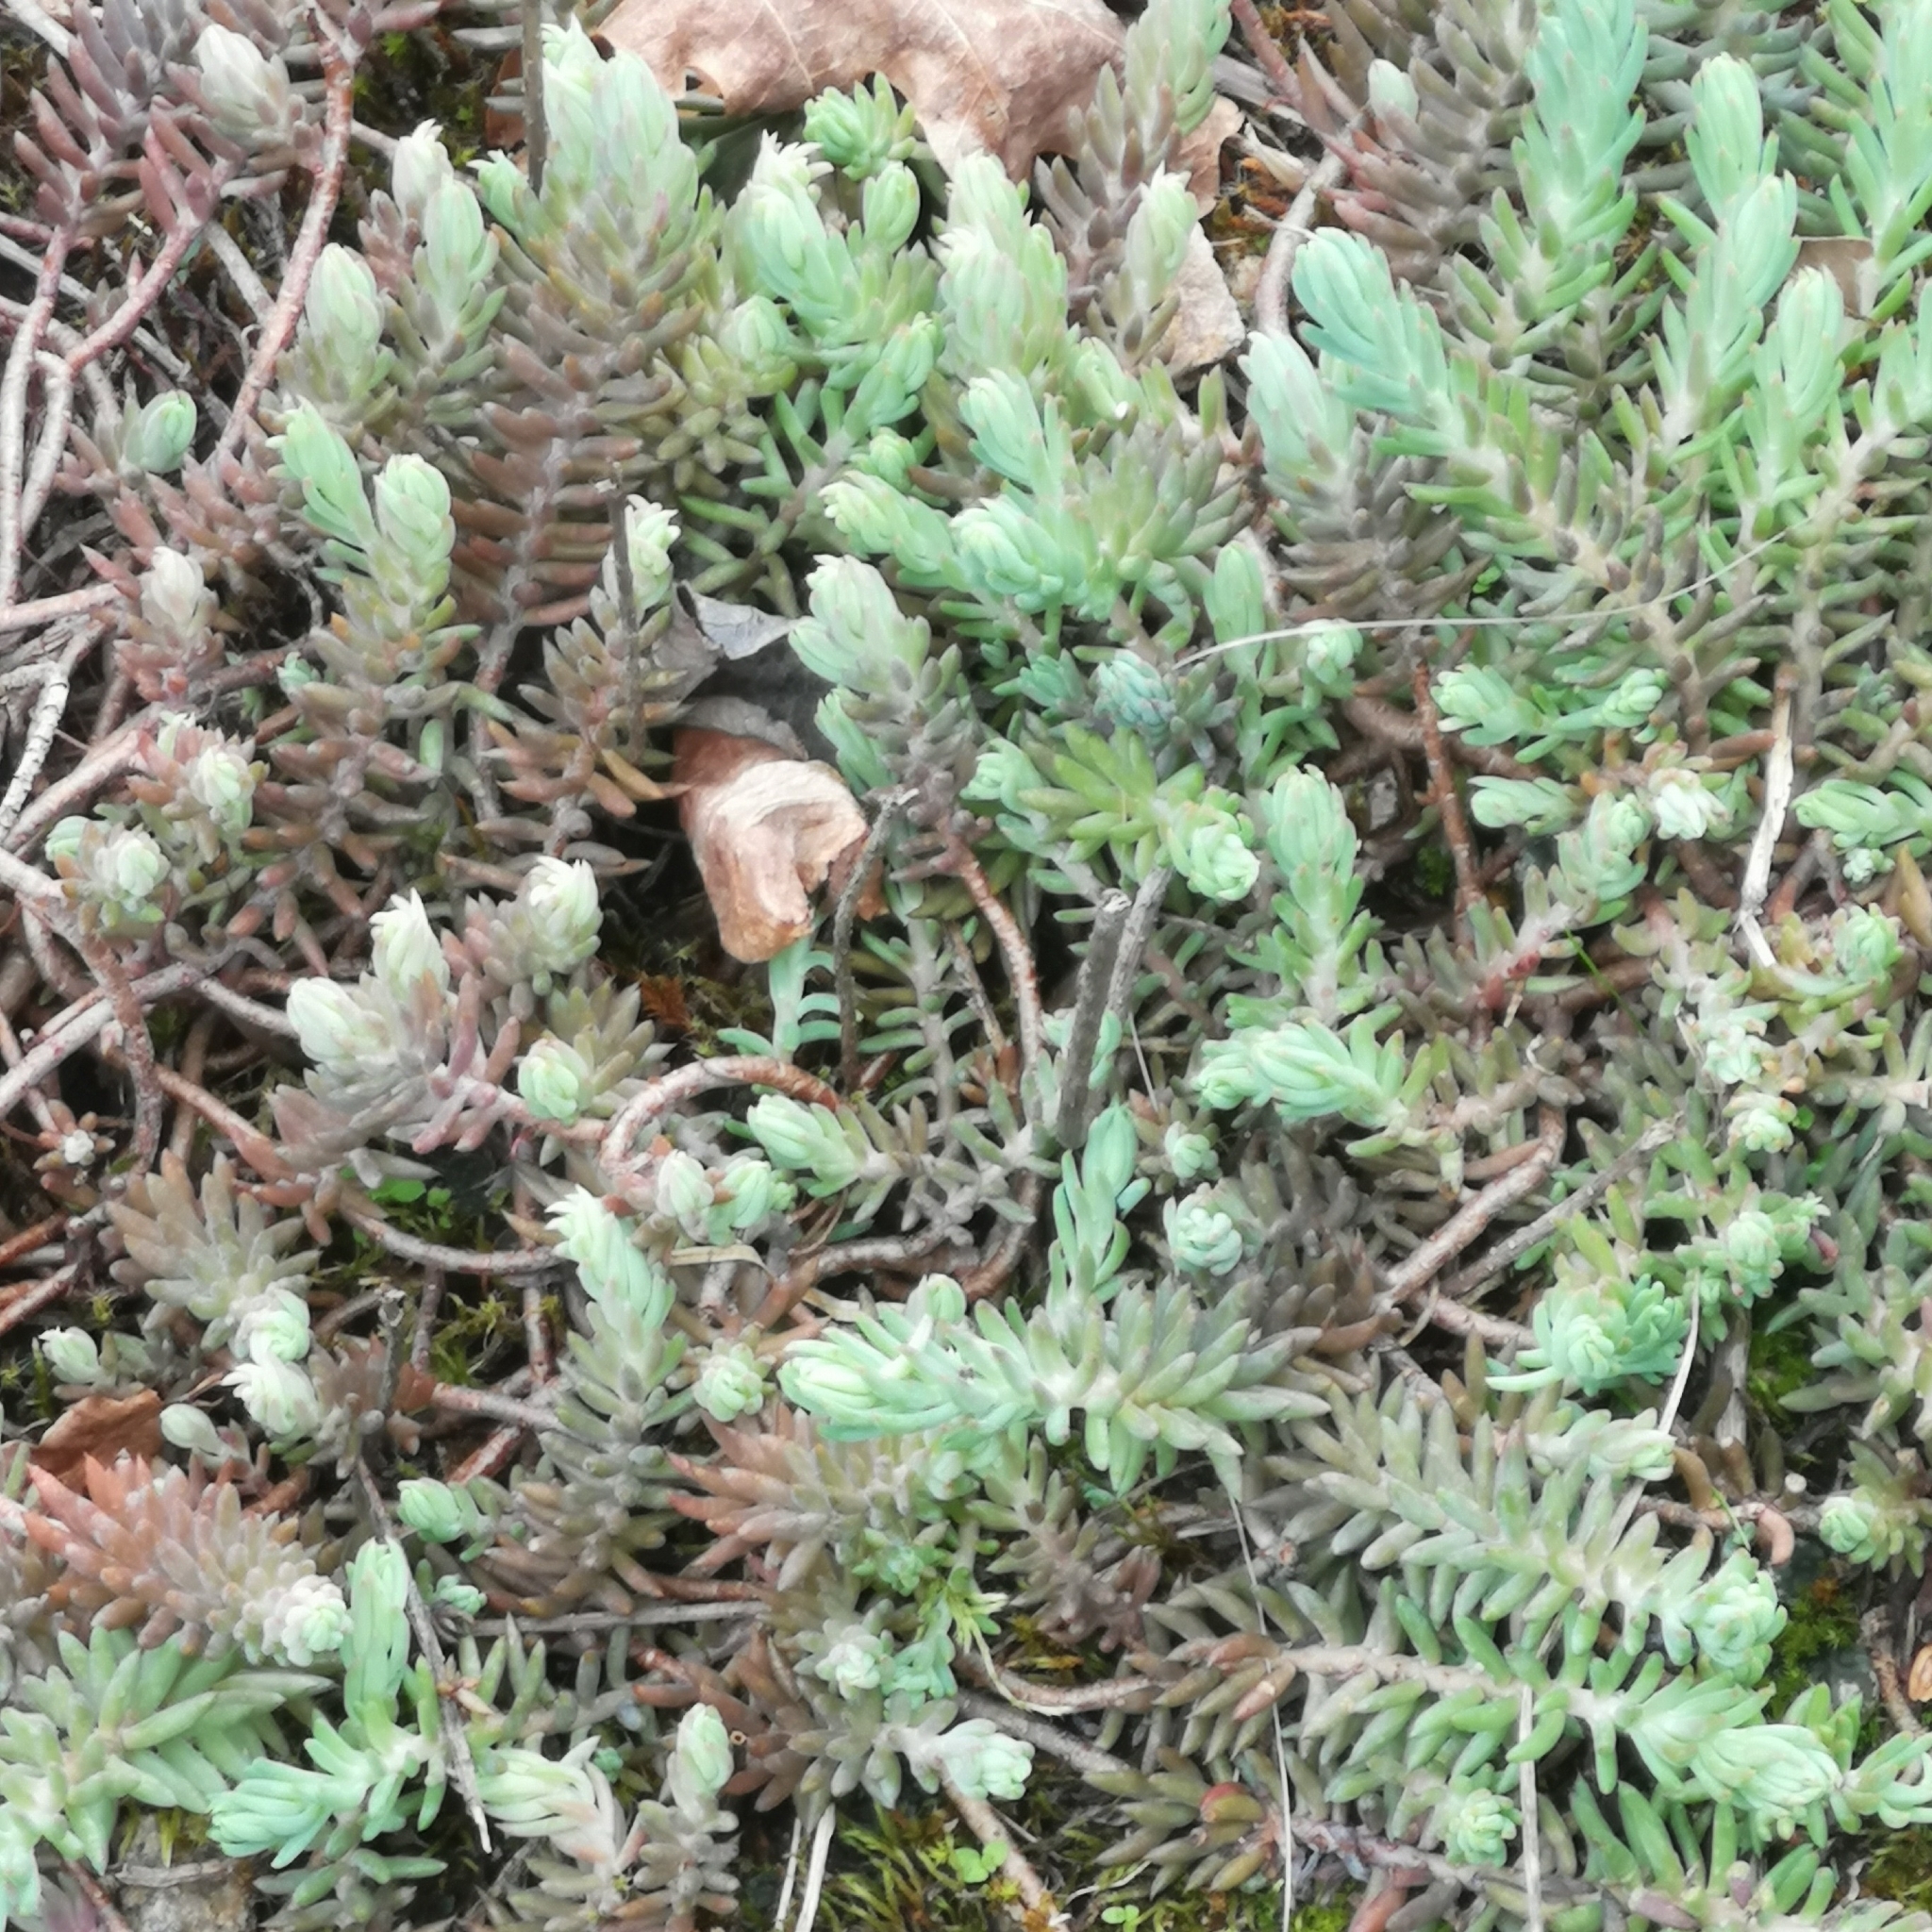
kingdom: Plantae
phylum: Tracheophyta
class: Magnoliopsida
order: Saxifragales
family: Crassulaceae
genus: Petrosedum
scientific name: Petrosedum rupestre
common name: Jenny's stonecrop
